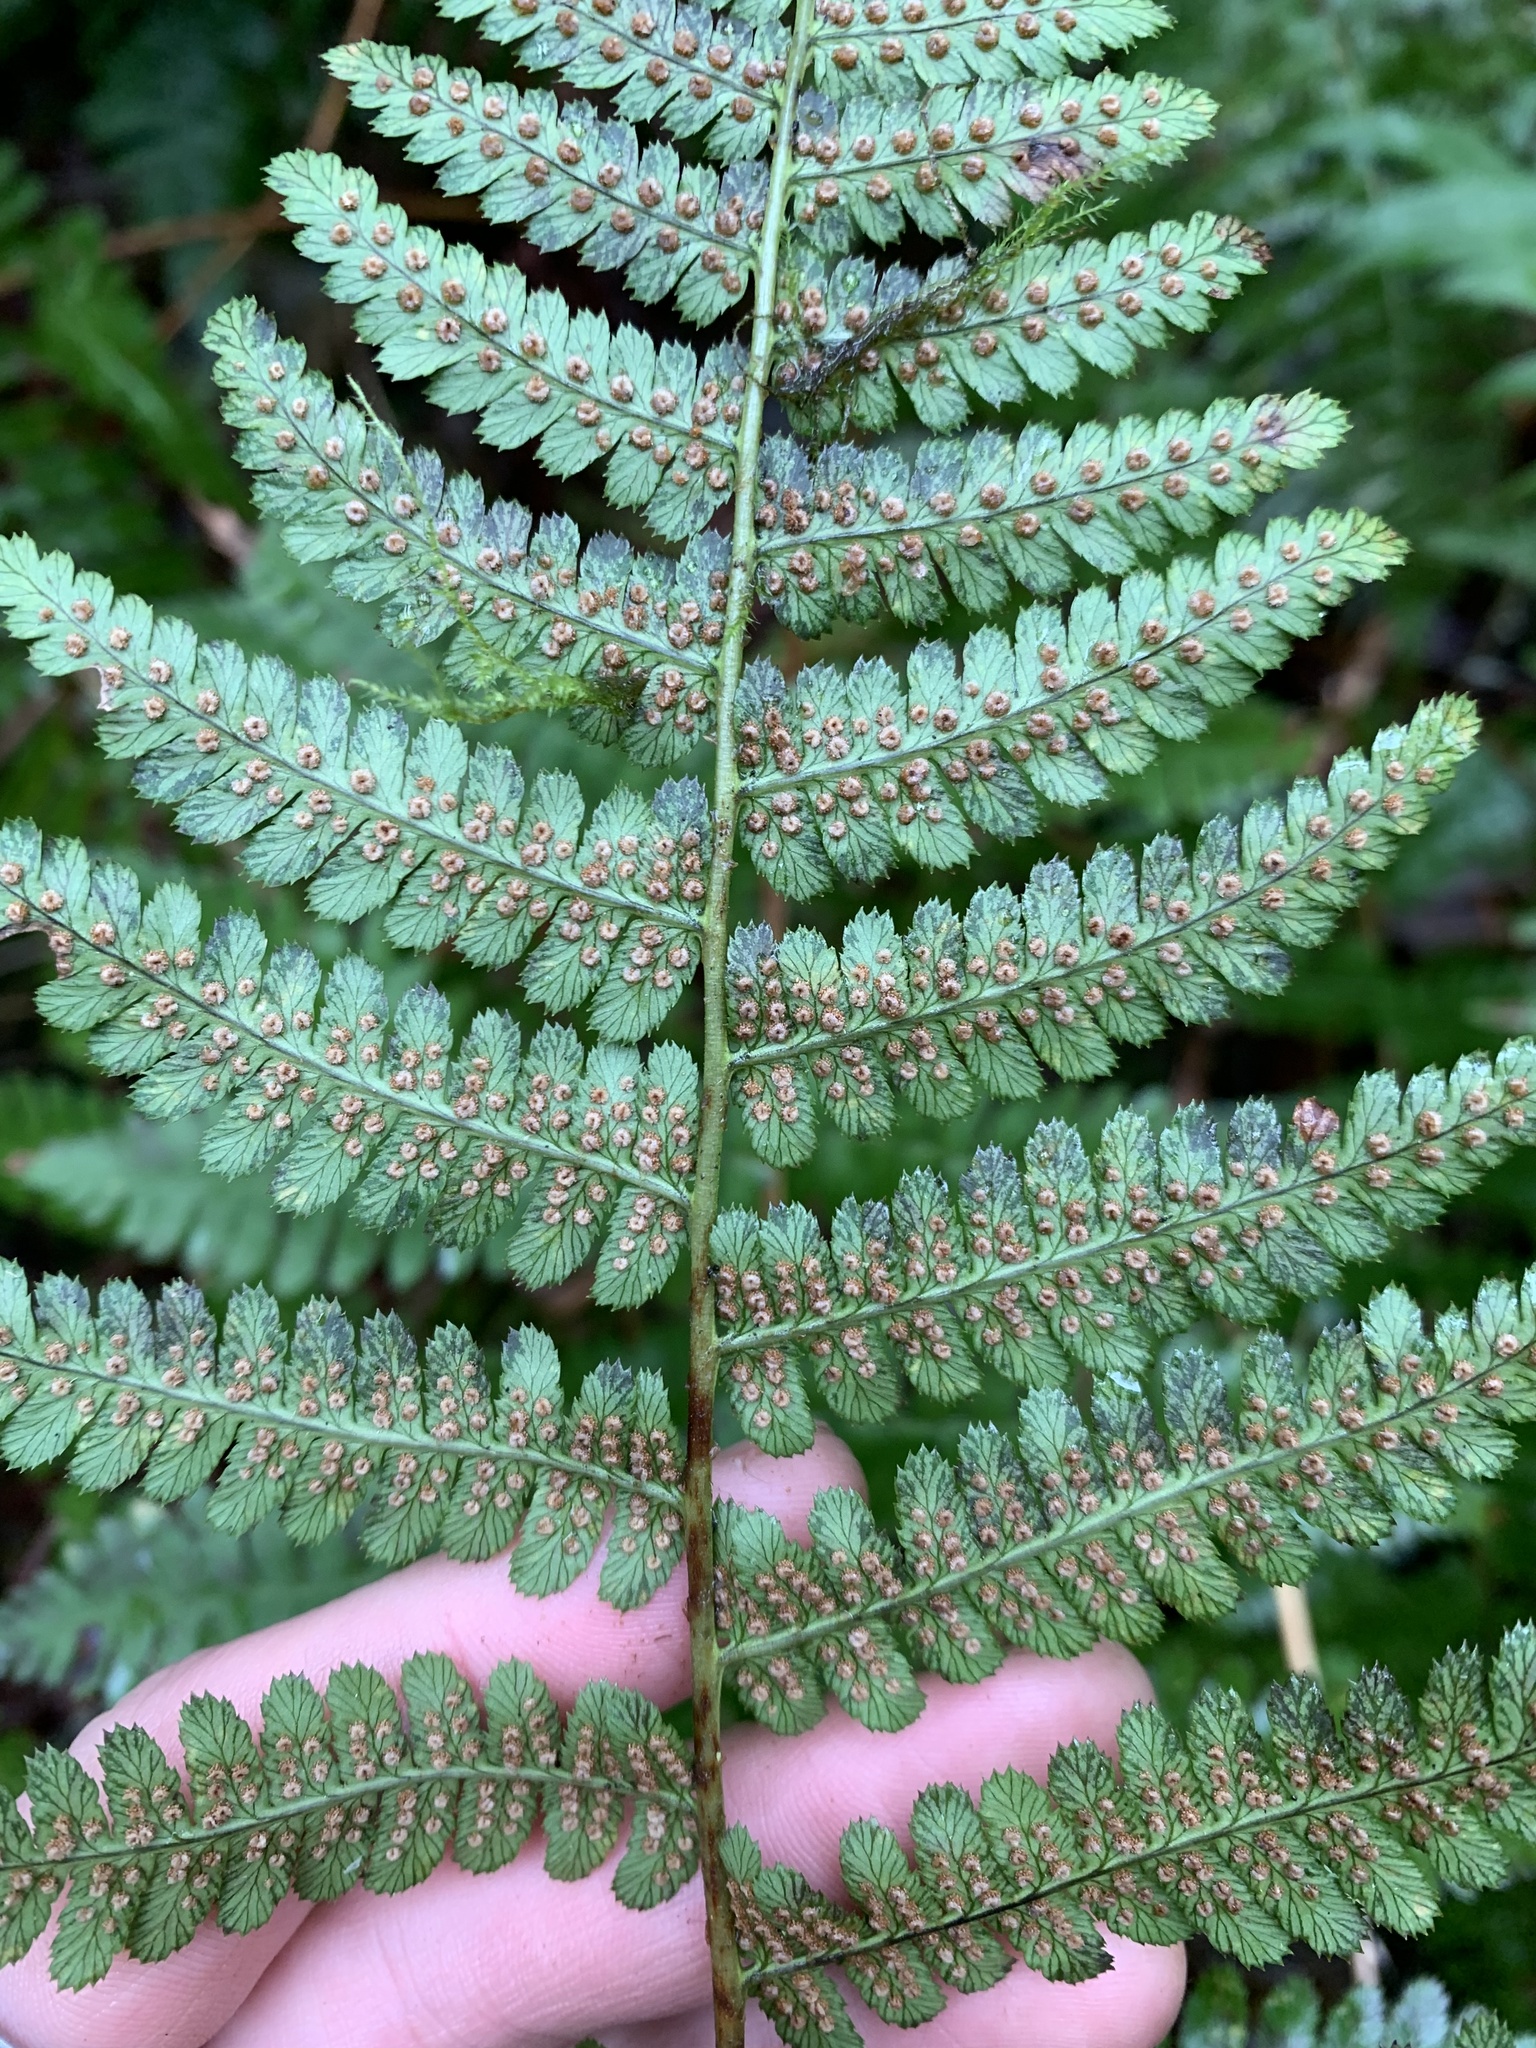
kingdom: Plantae
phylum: Tracheophyta
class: Polypodiopsida
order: Polypodiales
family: Dryopteridaceae
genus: Dryopteris
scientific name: Dryopteris arguta
